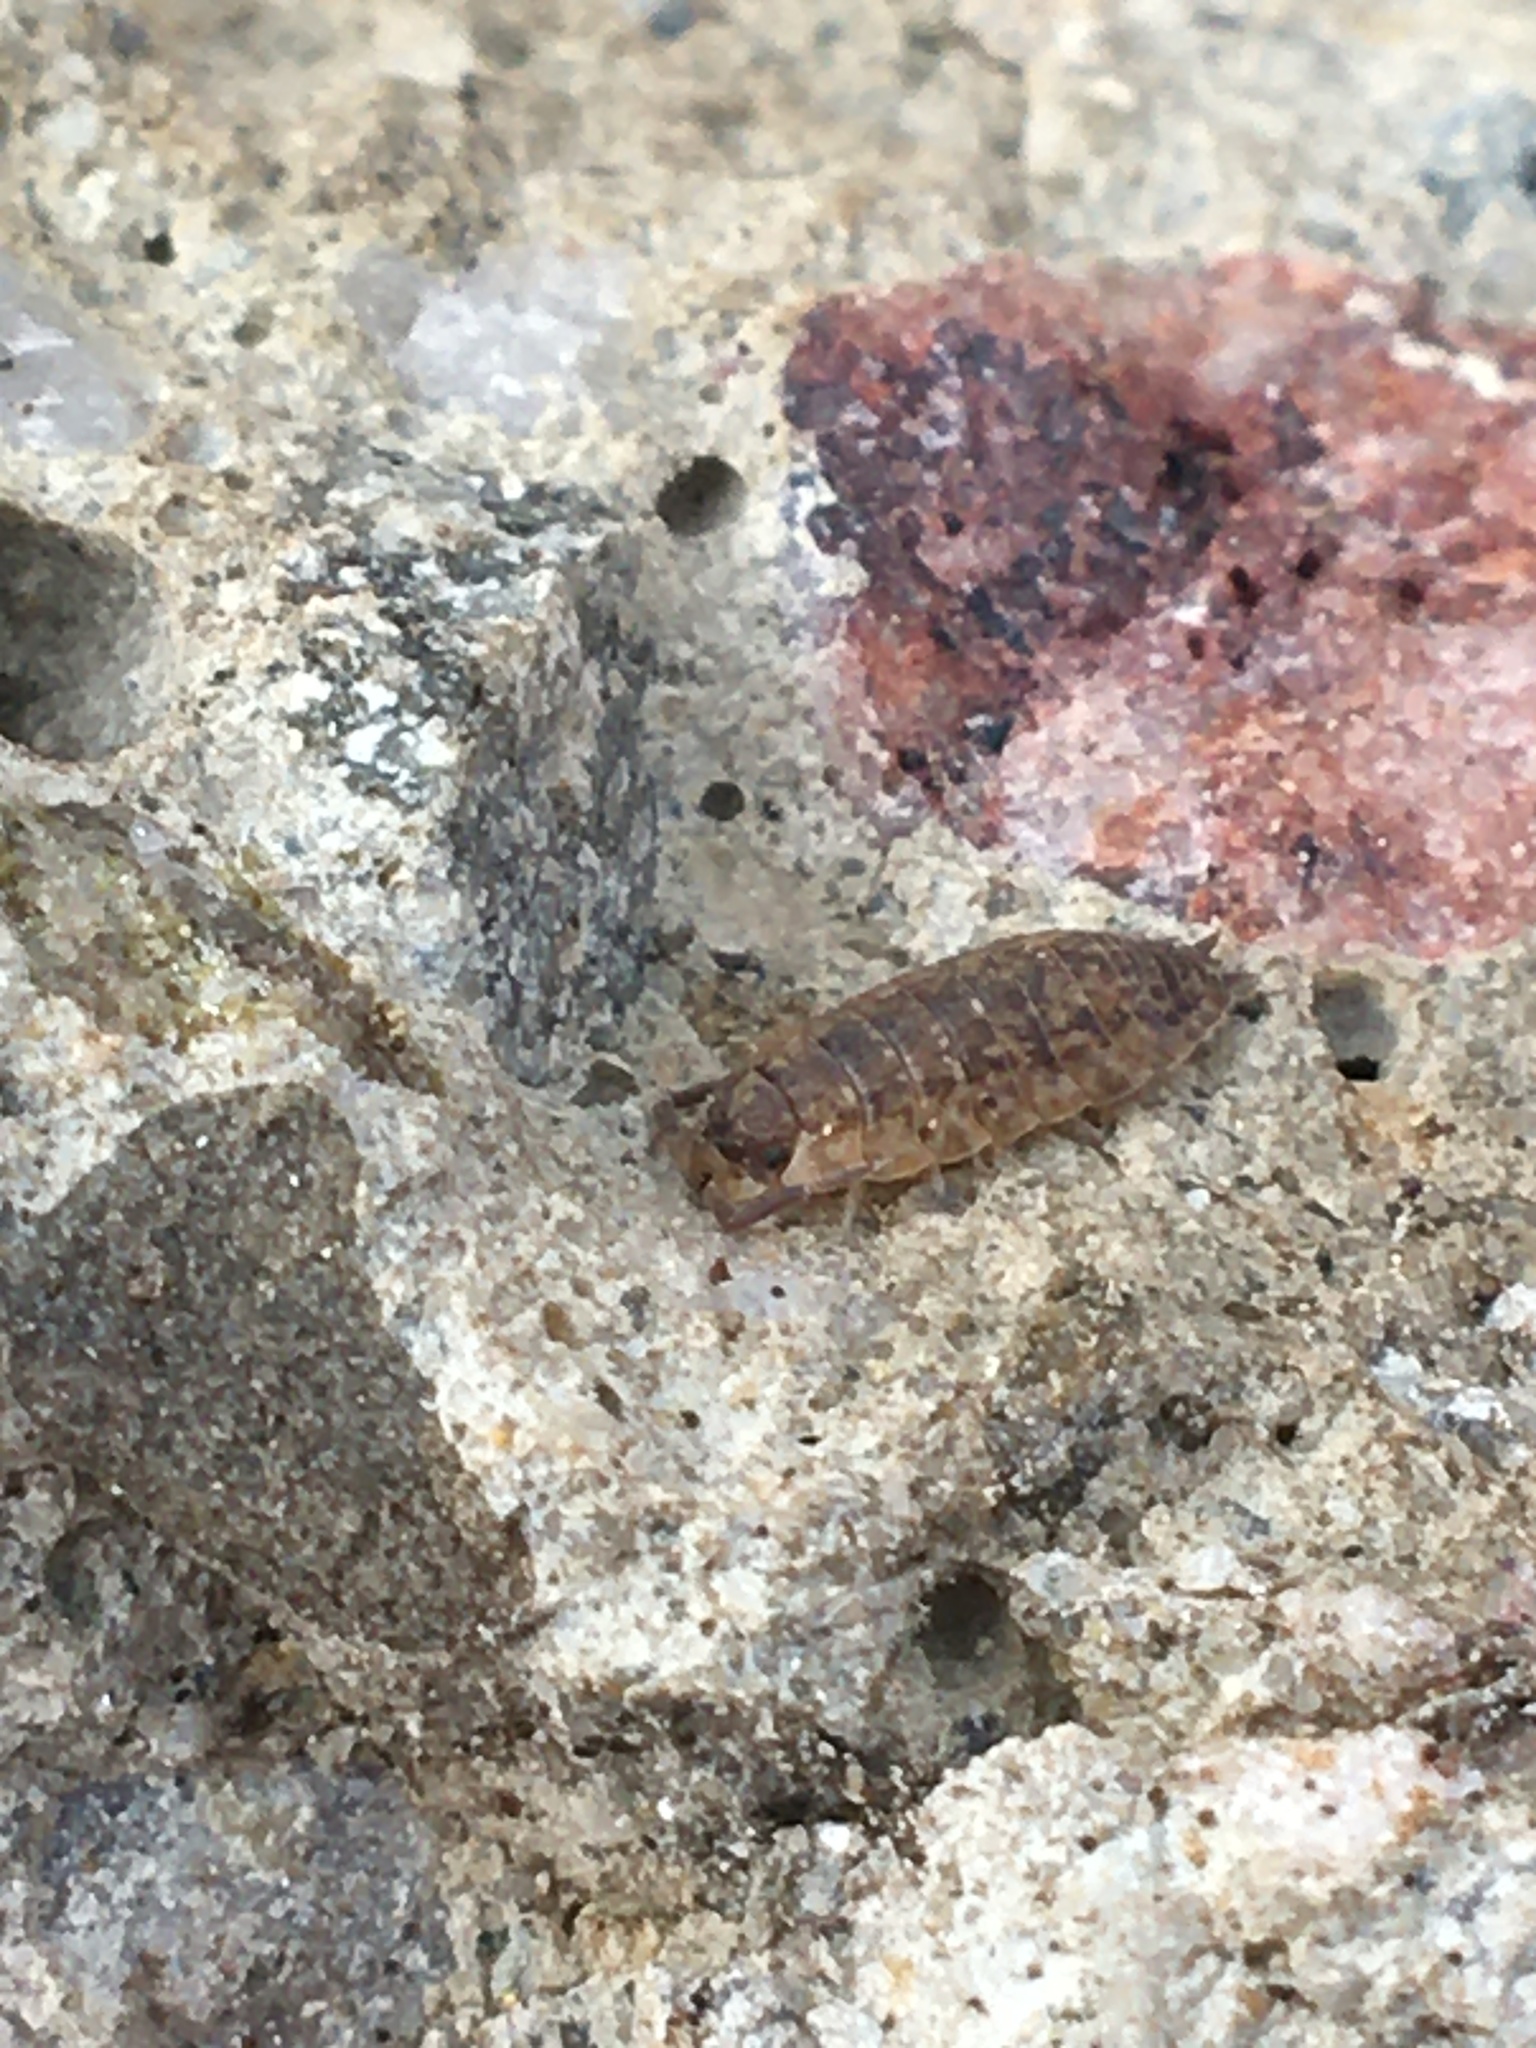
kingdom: Animalia
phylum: Arthropoda
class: Malacostraca
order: Isopoda
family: Porcellionidae
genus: Porcellio
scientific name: Porcellio scaber
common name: Common rough woodlouse
